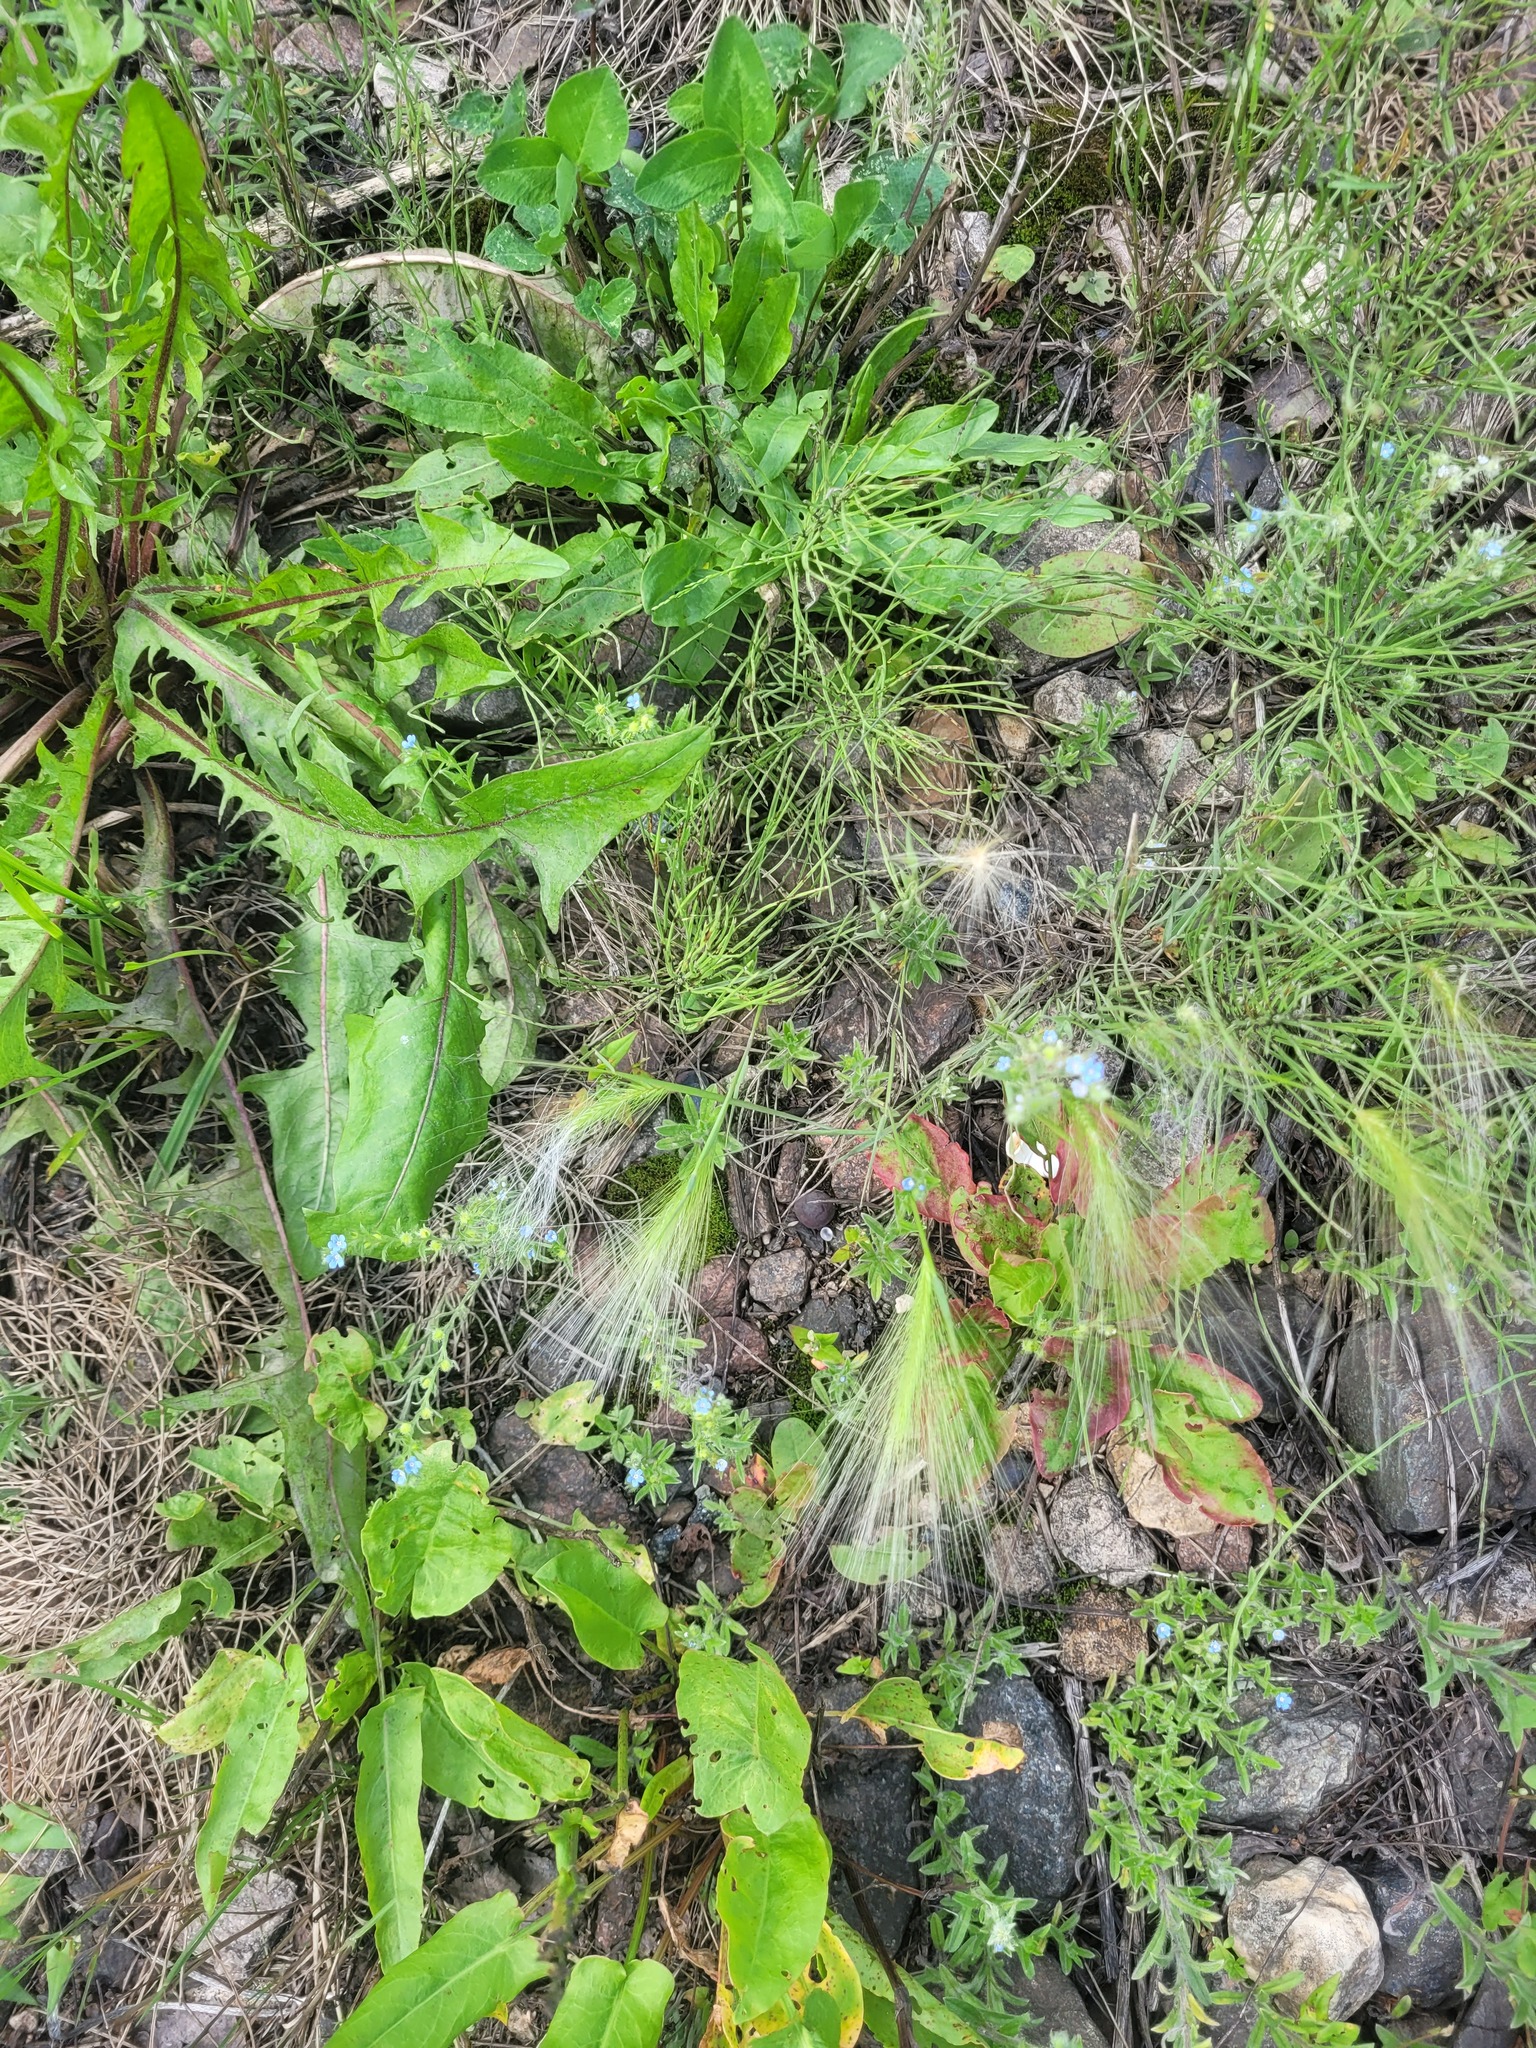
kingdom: Plantae
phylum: Tracheophyta
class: Liliopsida
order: Poales
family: Poaceae
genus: Hordeum
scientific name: Hordeum jubatum
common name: Foxtail barley
